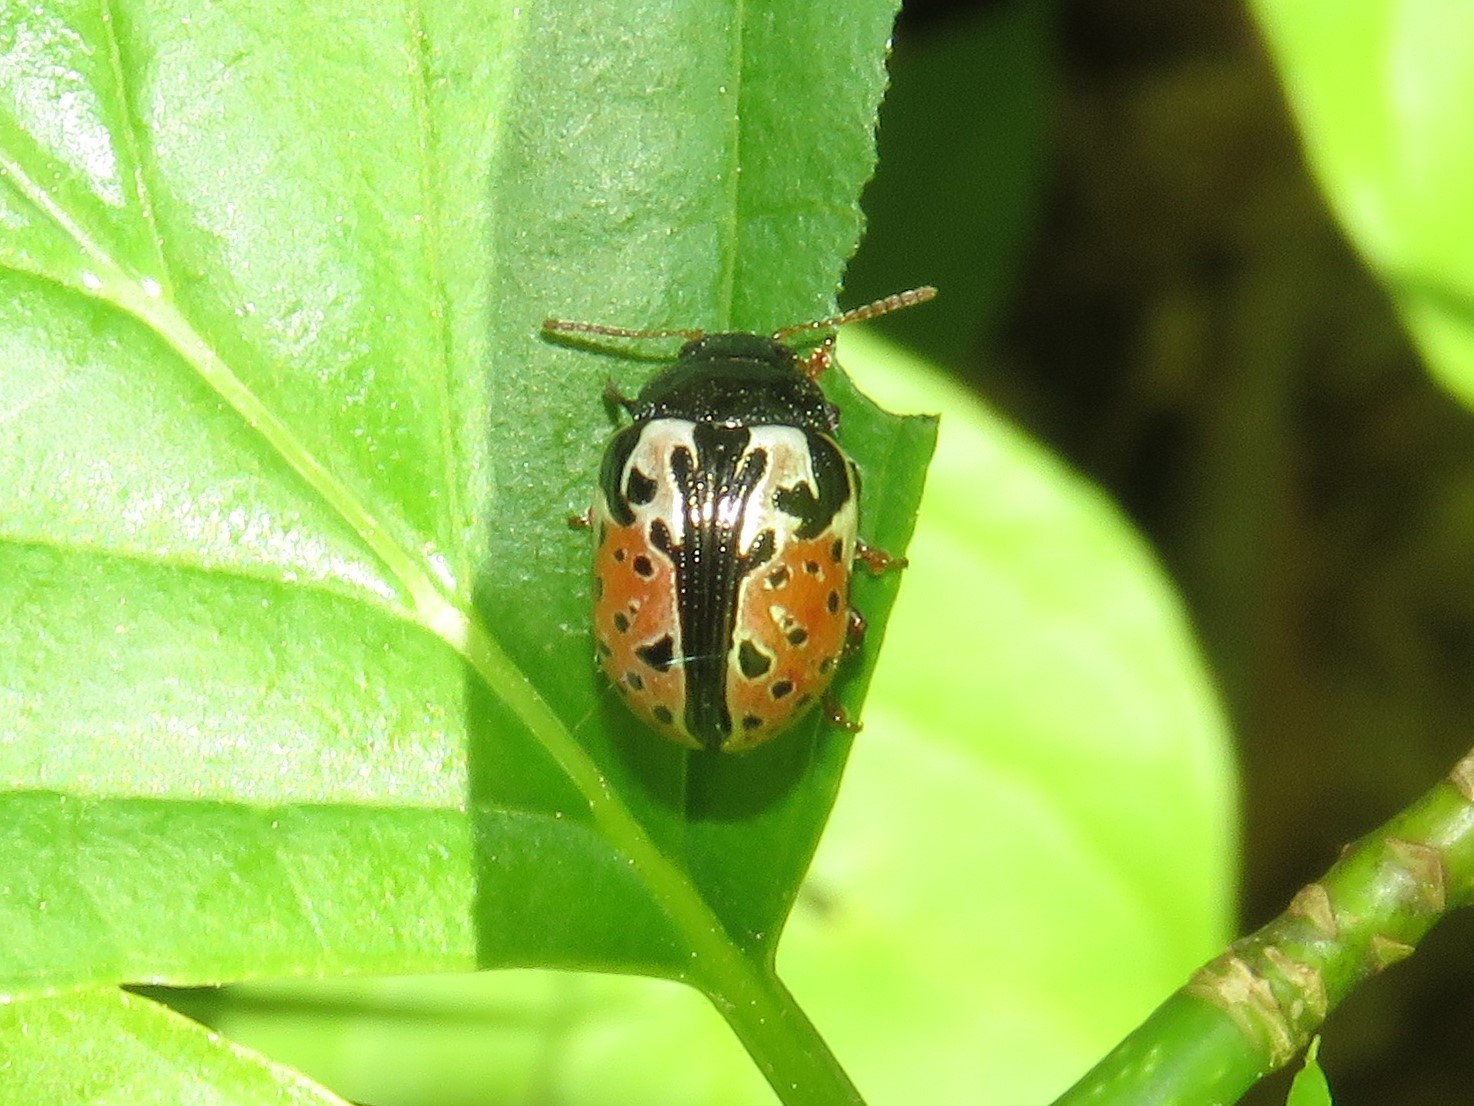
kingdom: Animalia
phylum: Arthropoda
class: Insecta
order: Coleoptera
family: Chrysomelidae
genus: Calligrapha
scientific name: Calligrapha rowena
